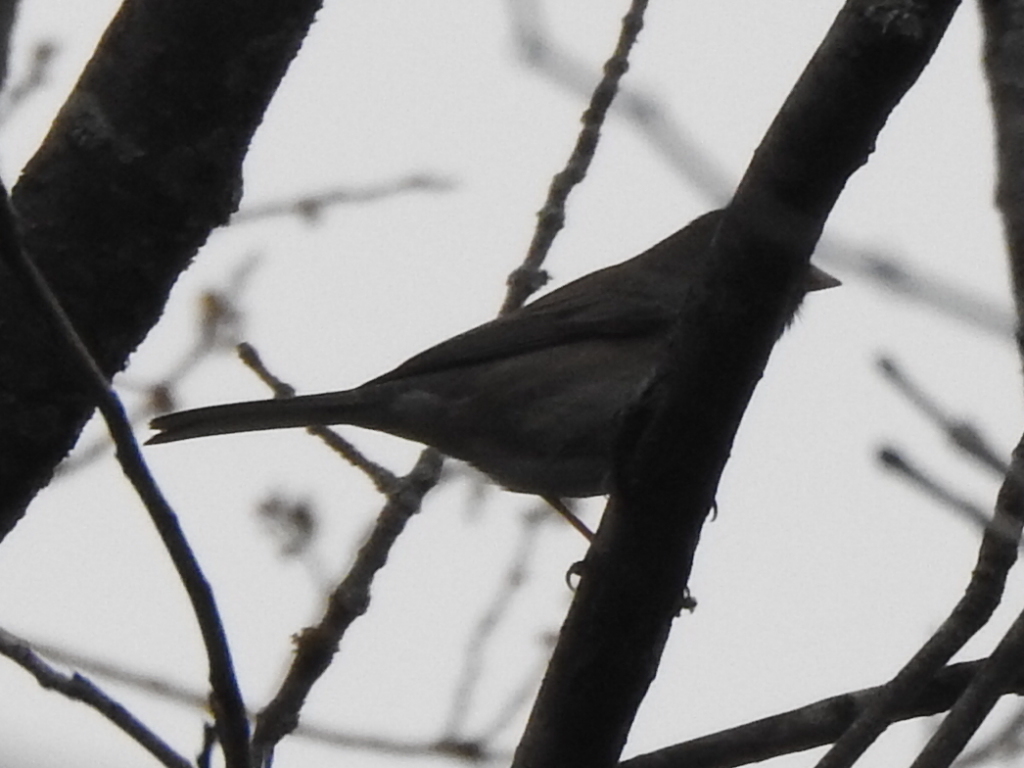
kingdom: Animalia
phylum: Chordata
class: Aves
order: Passeriformes
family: Passerellidae
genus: Junco
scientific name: Junco hyemalis
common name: Dark-eyed junco
